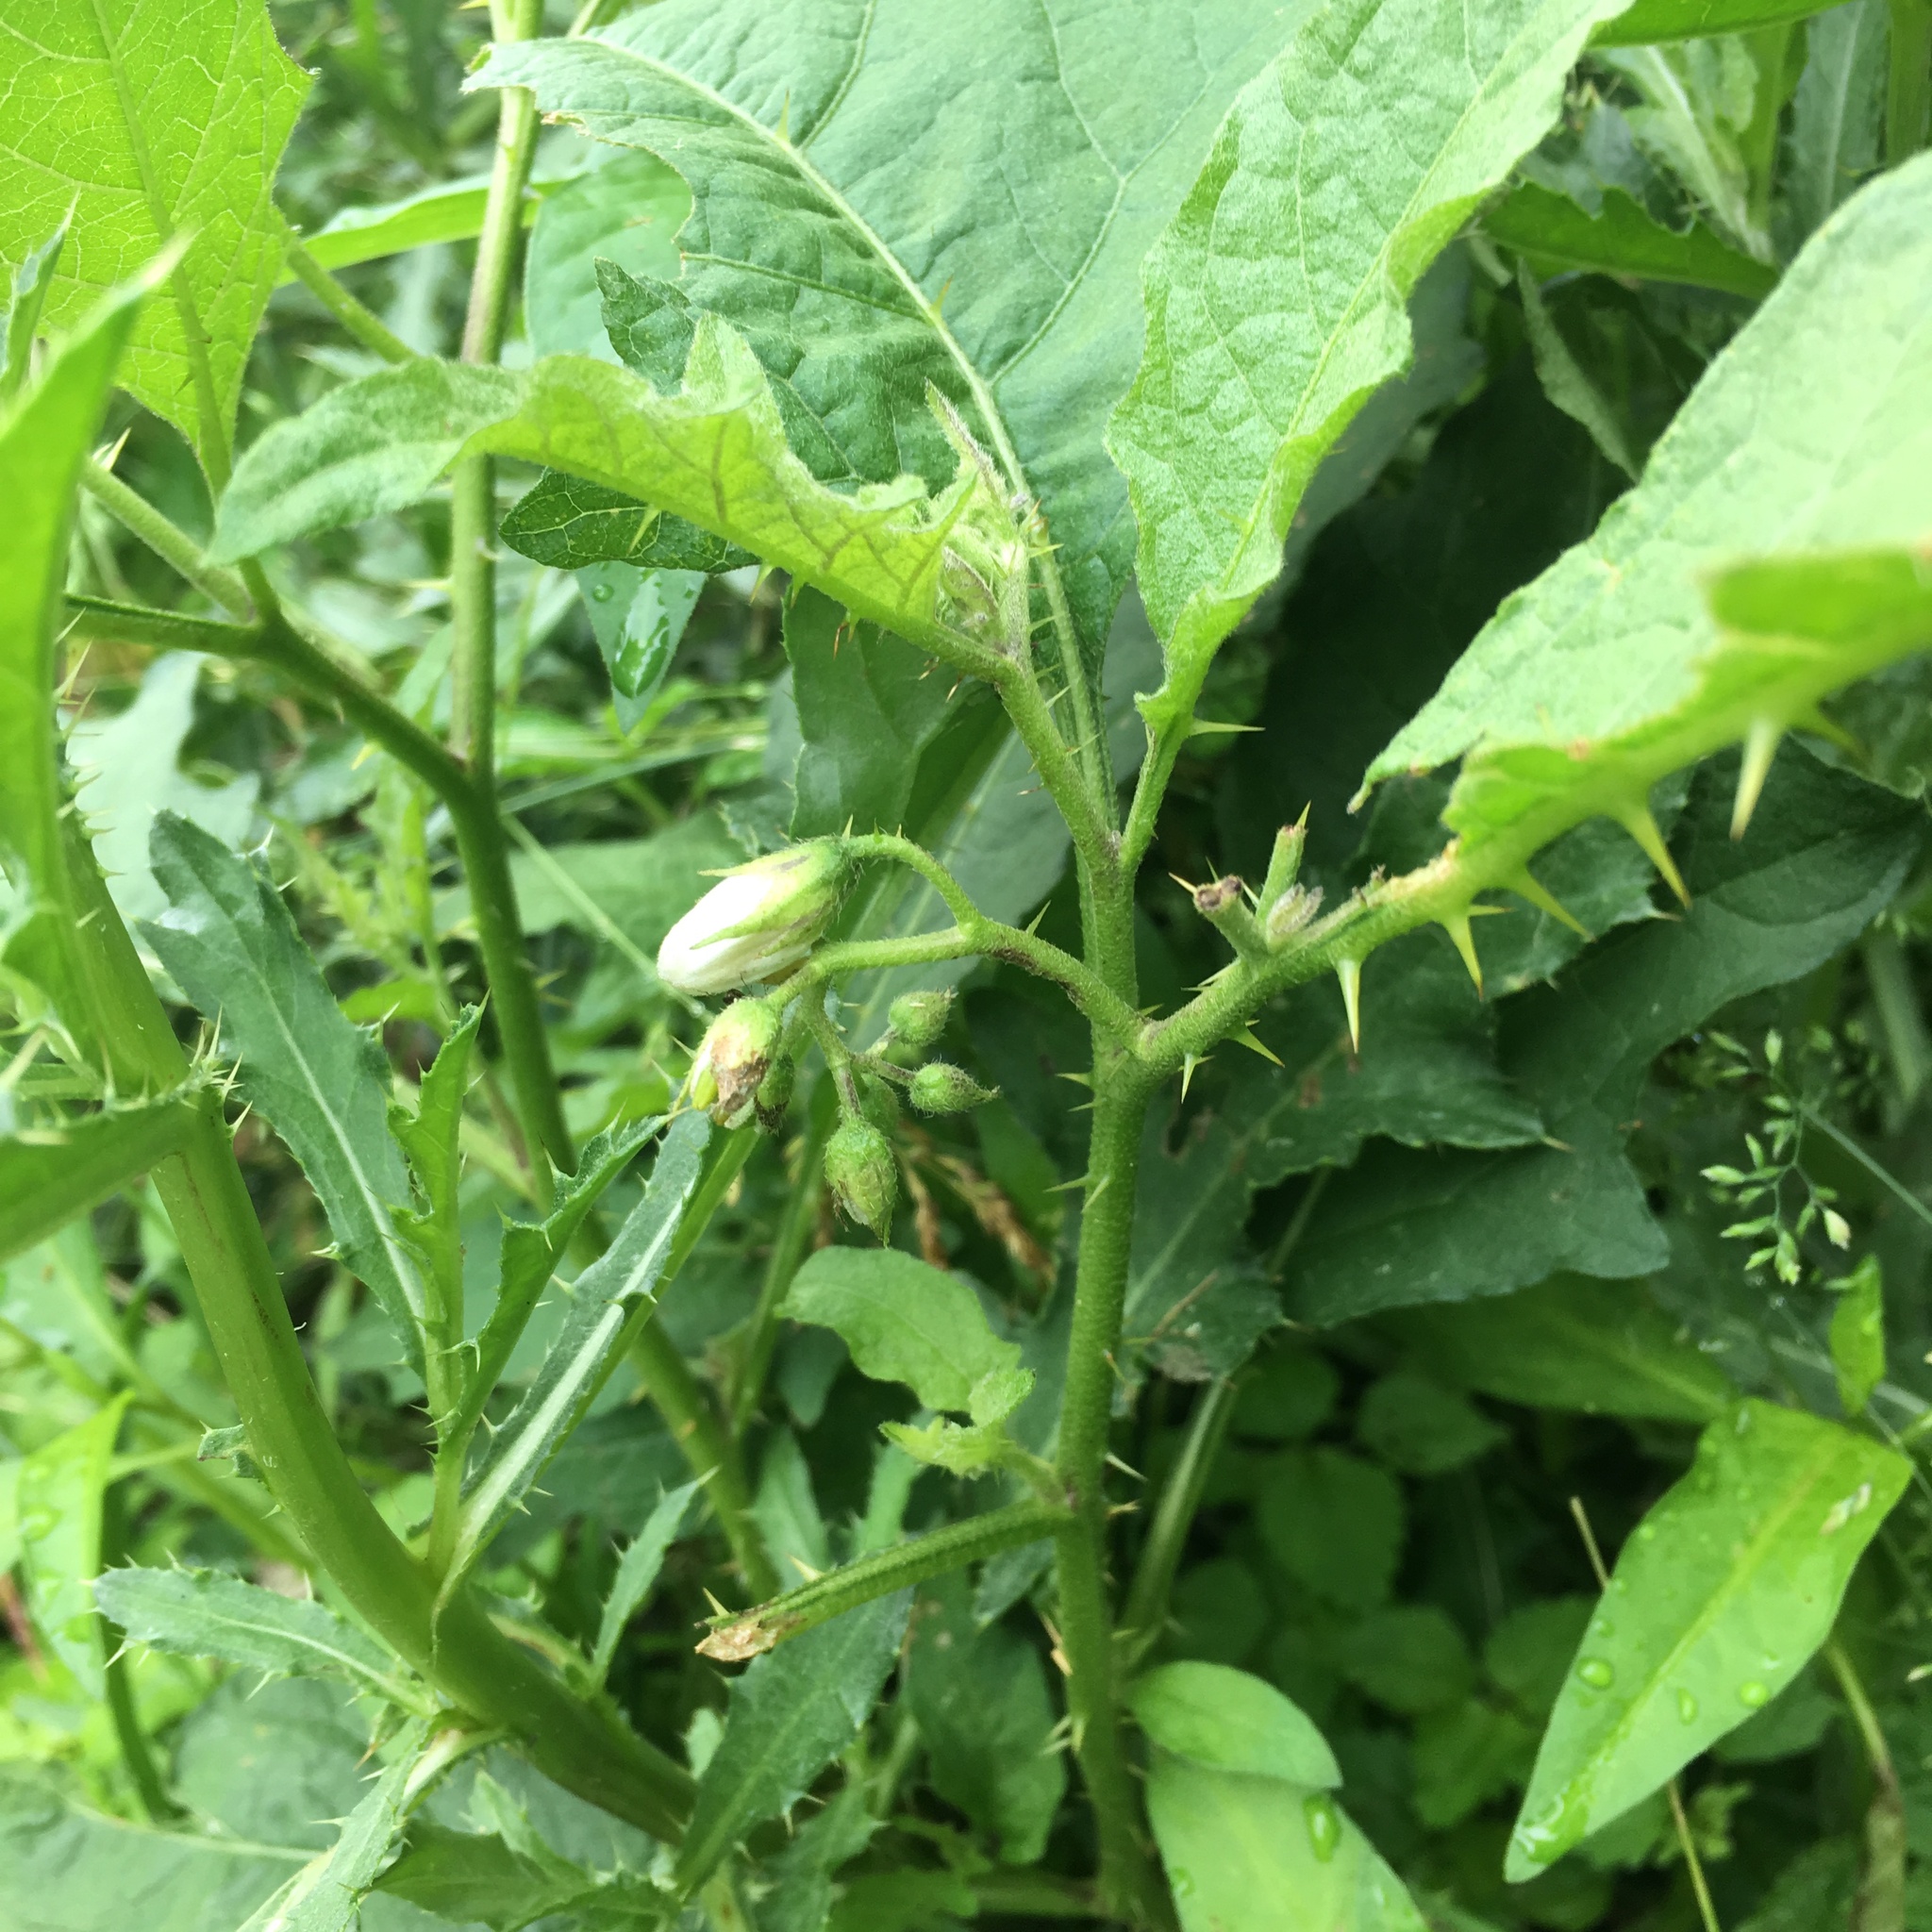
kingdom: Plantae
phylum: Tracheophyta
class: Magnoliopsida
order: Solanales
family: Solanaceae
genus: Solanum
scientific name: Solanum carolinense
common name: Horse-nettle
